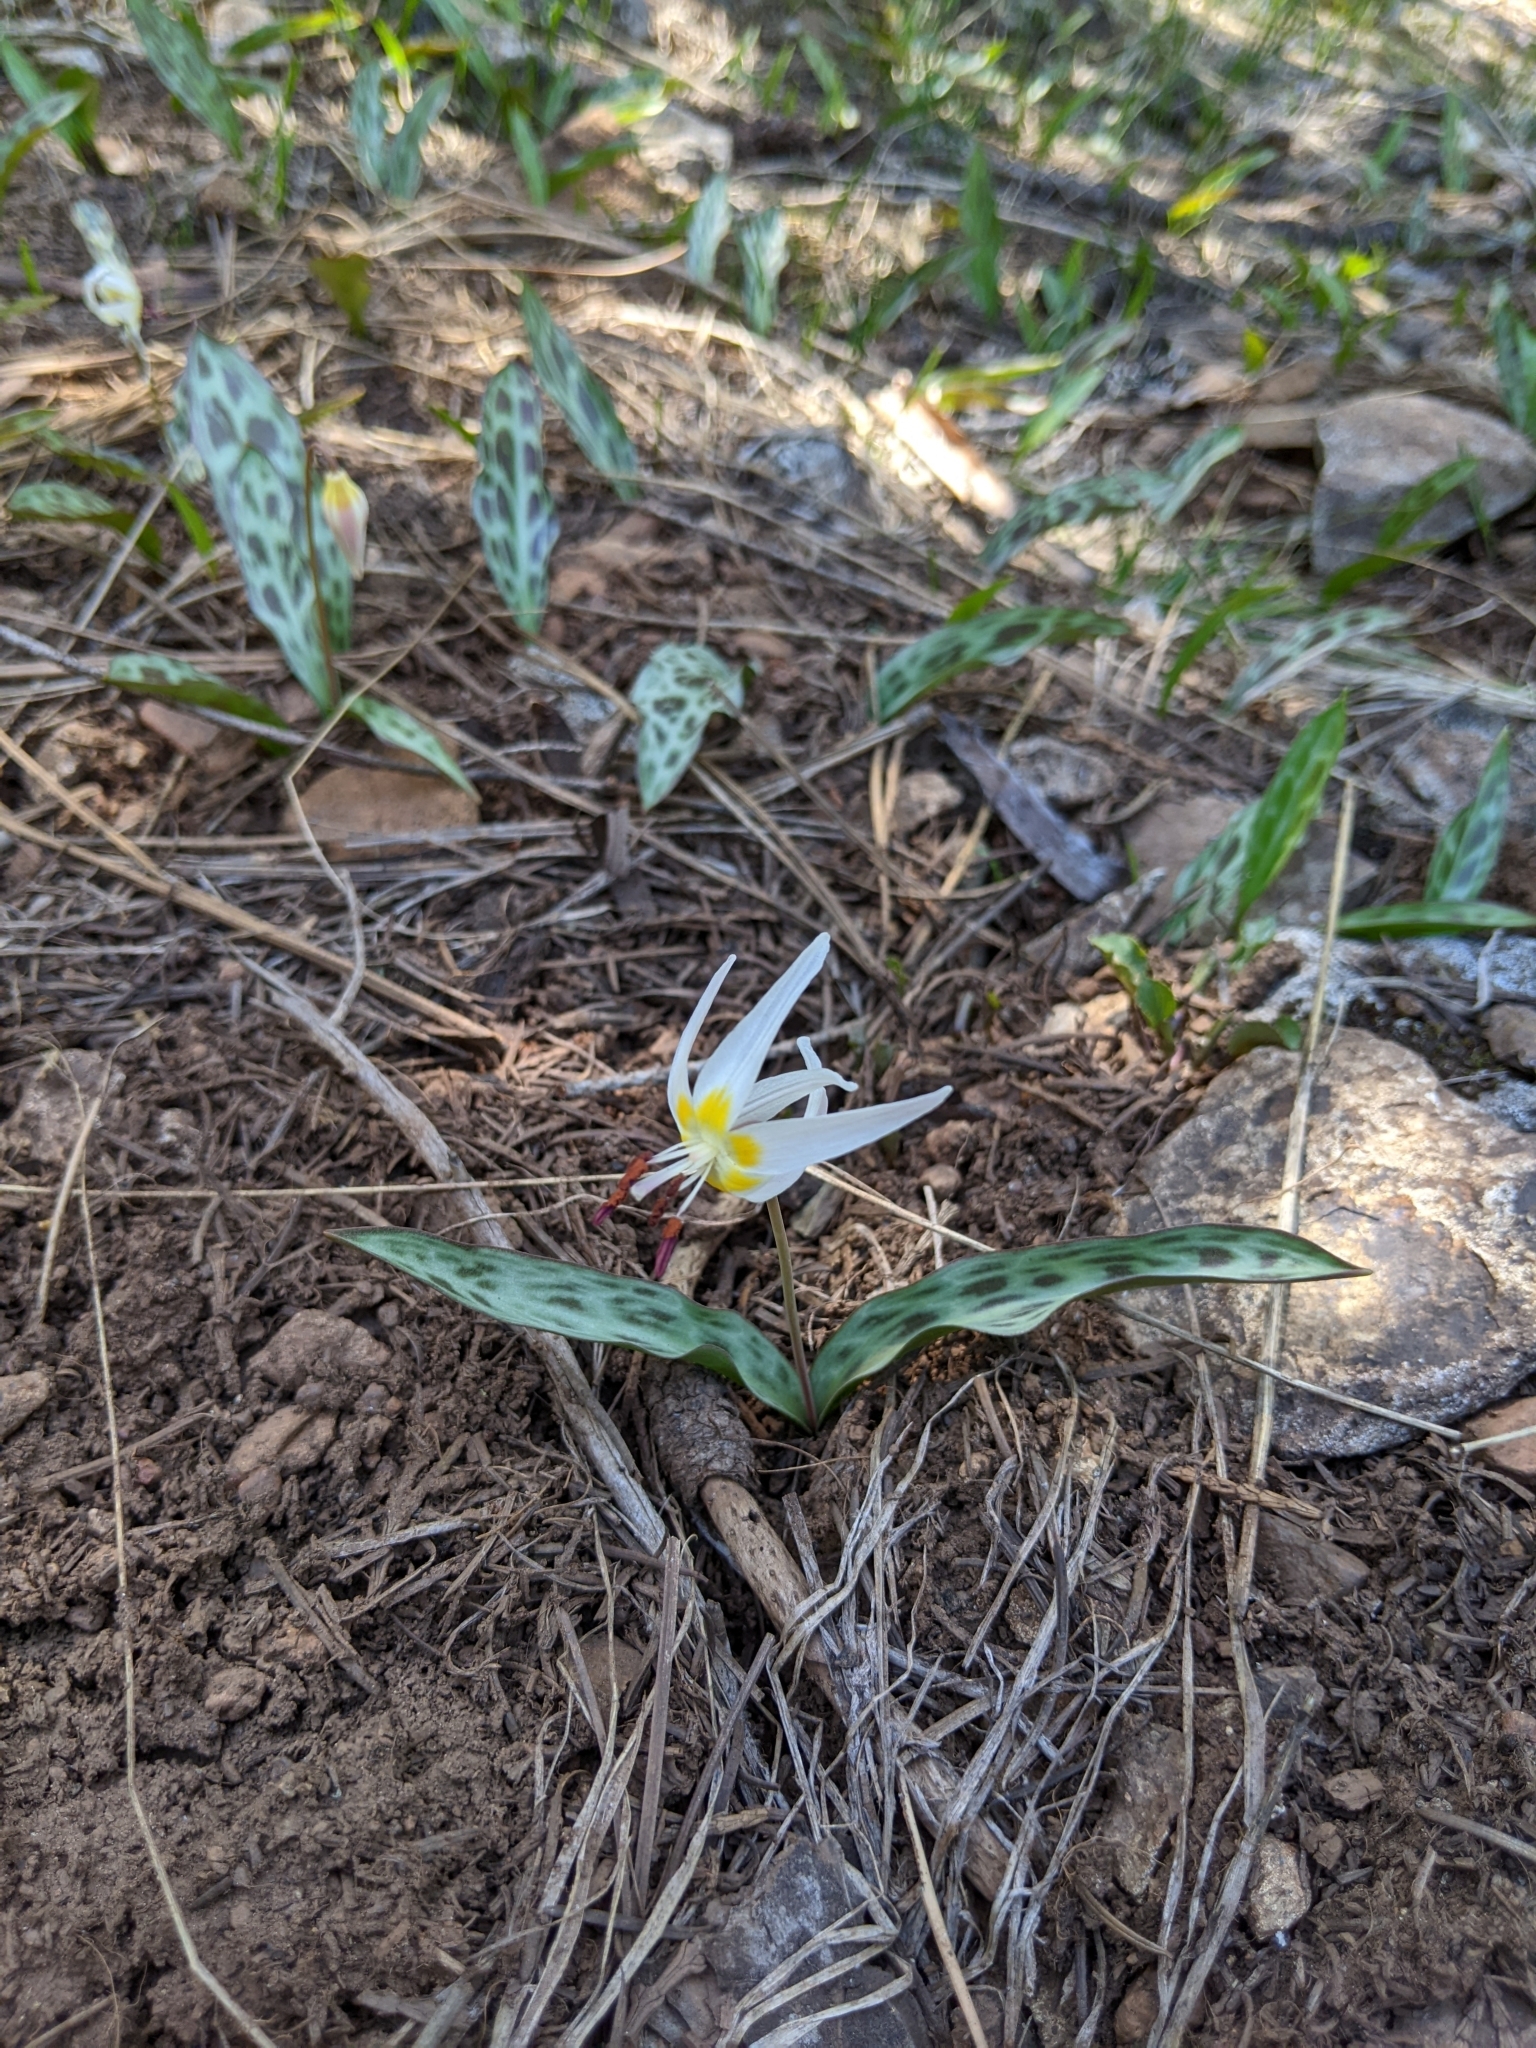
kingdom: Plantae
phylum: Tracheophyta
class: Liliopsida
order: Liliales
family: Liliaceae
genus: Erythronium
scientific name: Erythronium citrinum
